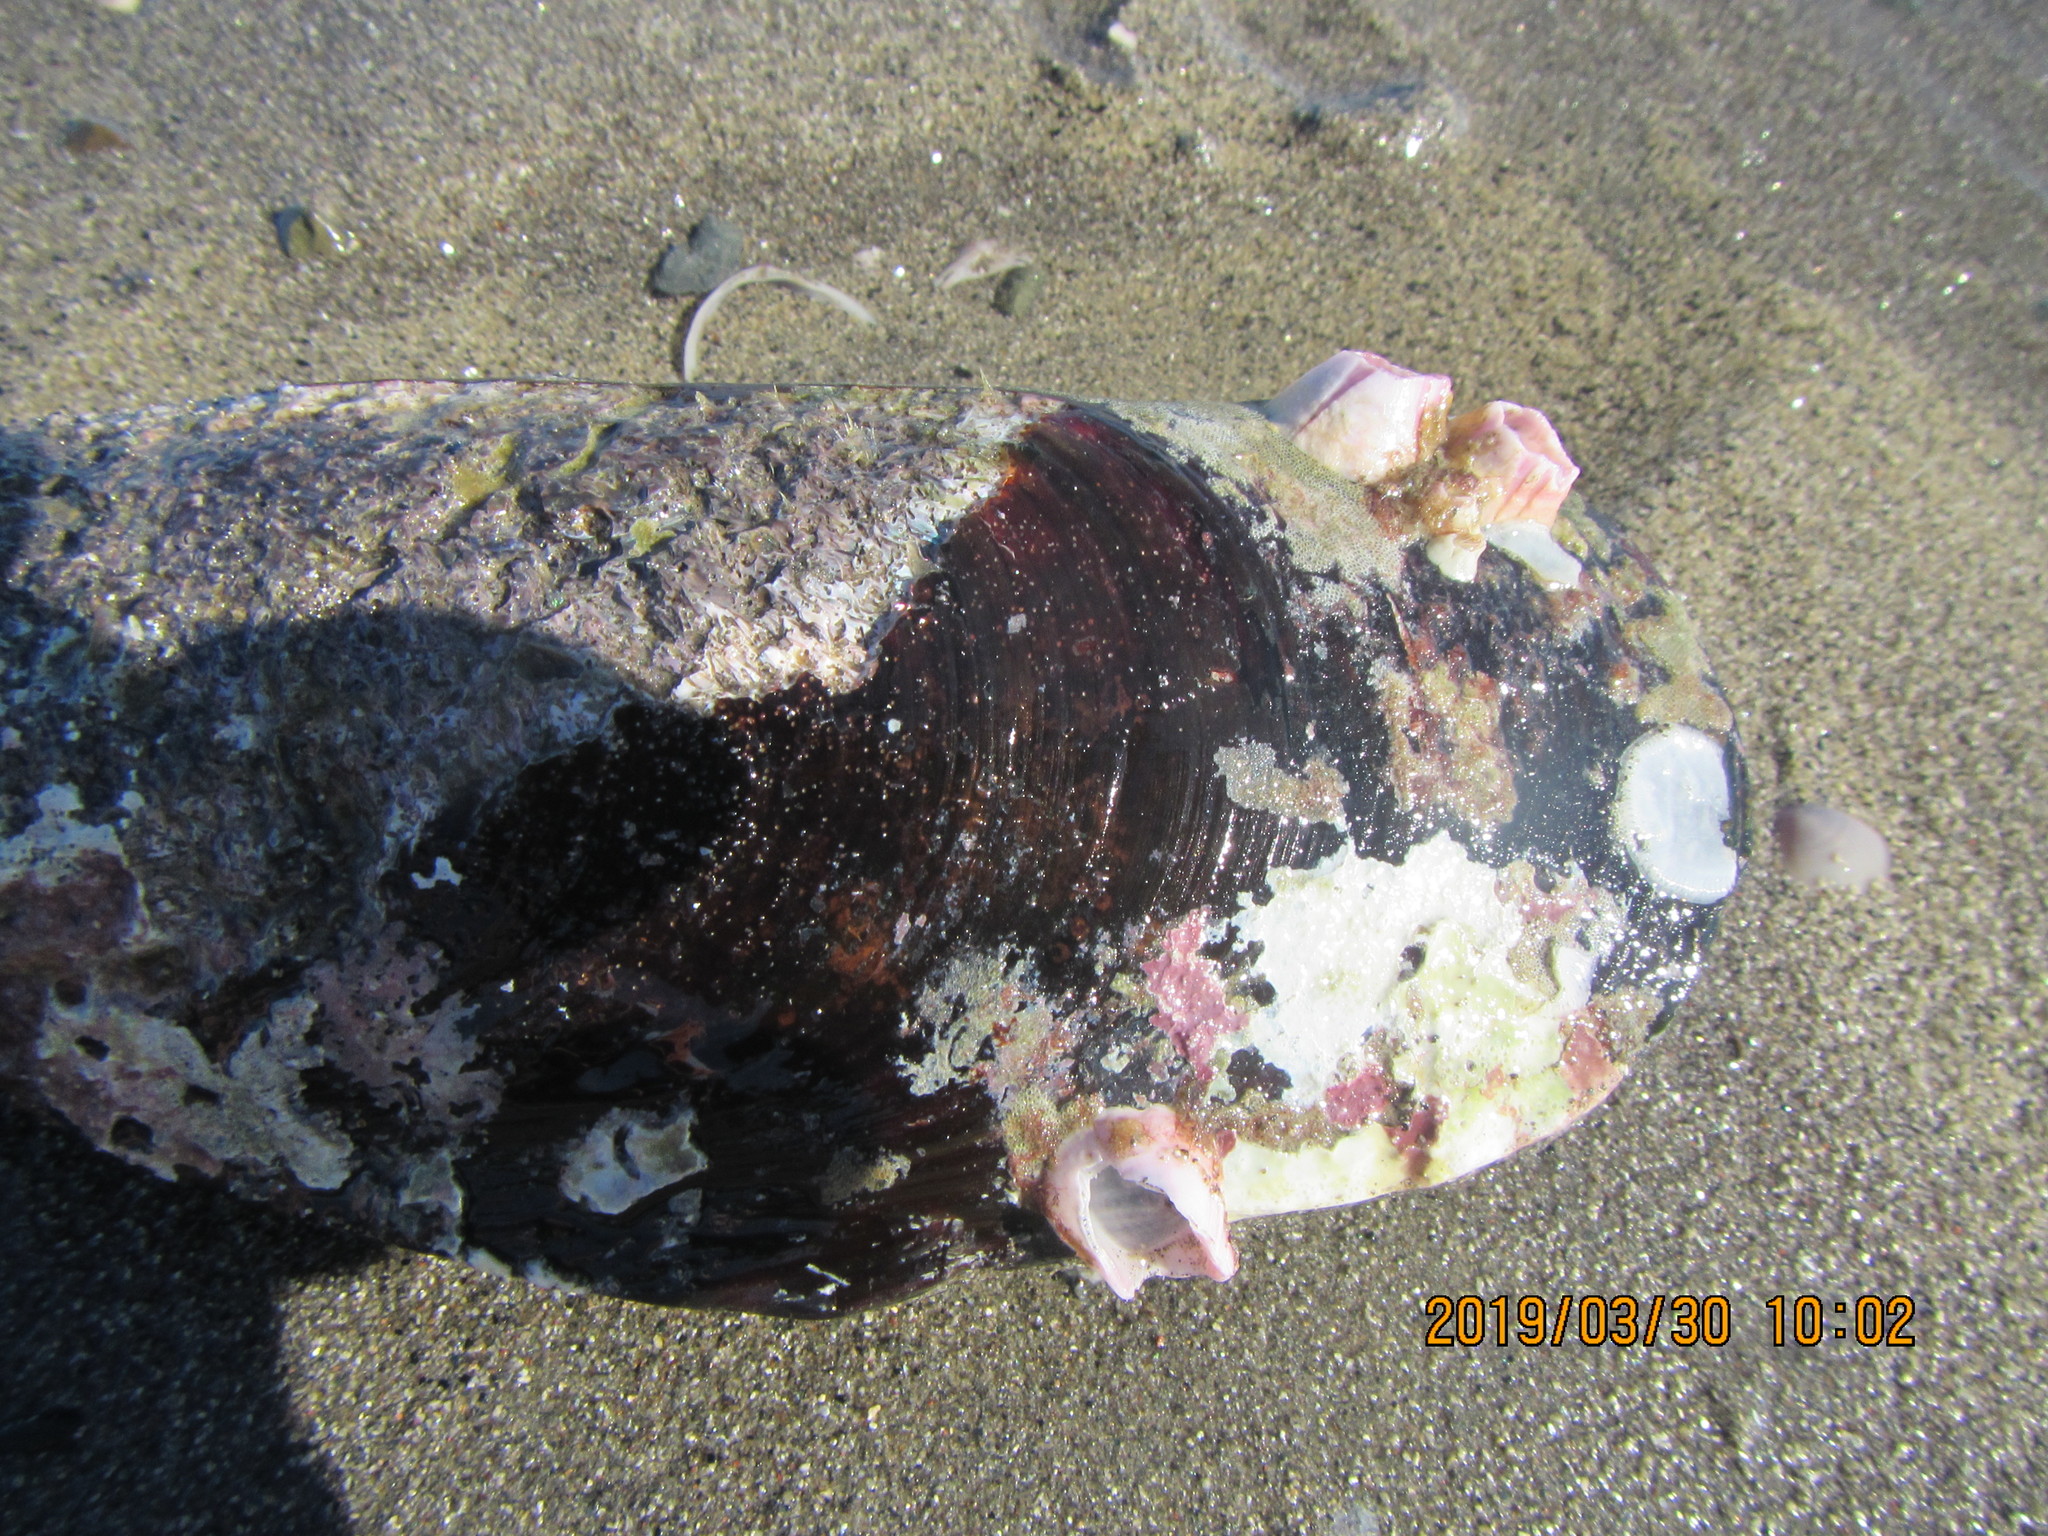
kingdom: Animalia
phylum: Arthropoda
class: Maxillopoda
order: Sessilia
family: Balanidae
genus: Notomegabalanus
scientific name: Notomegabalanus decorus
